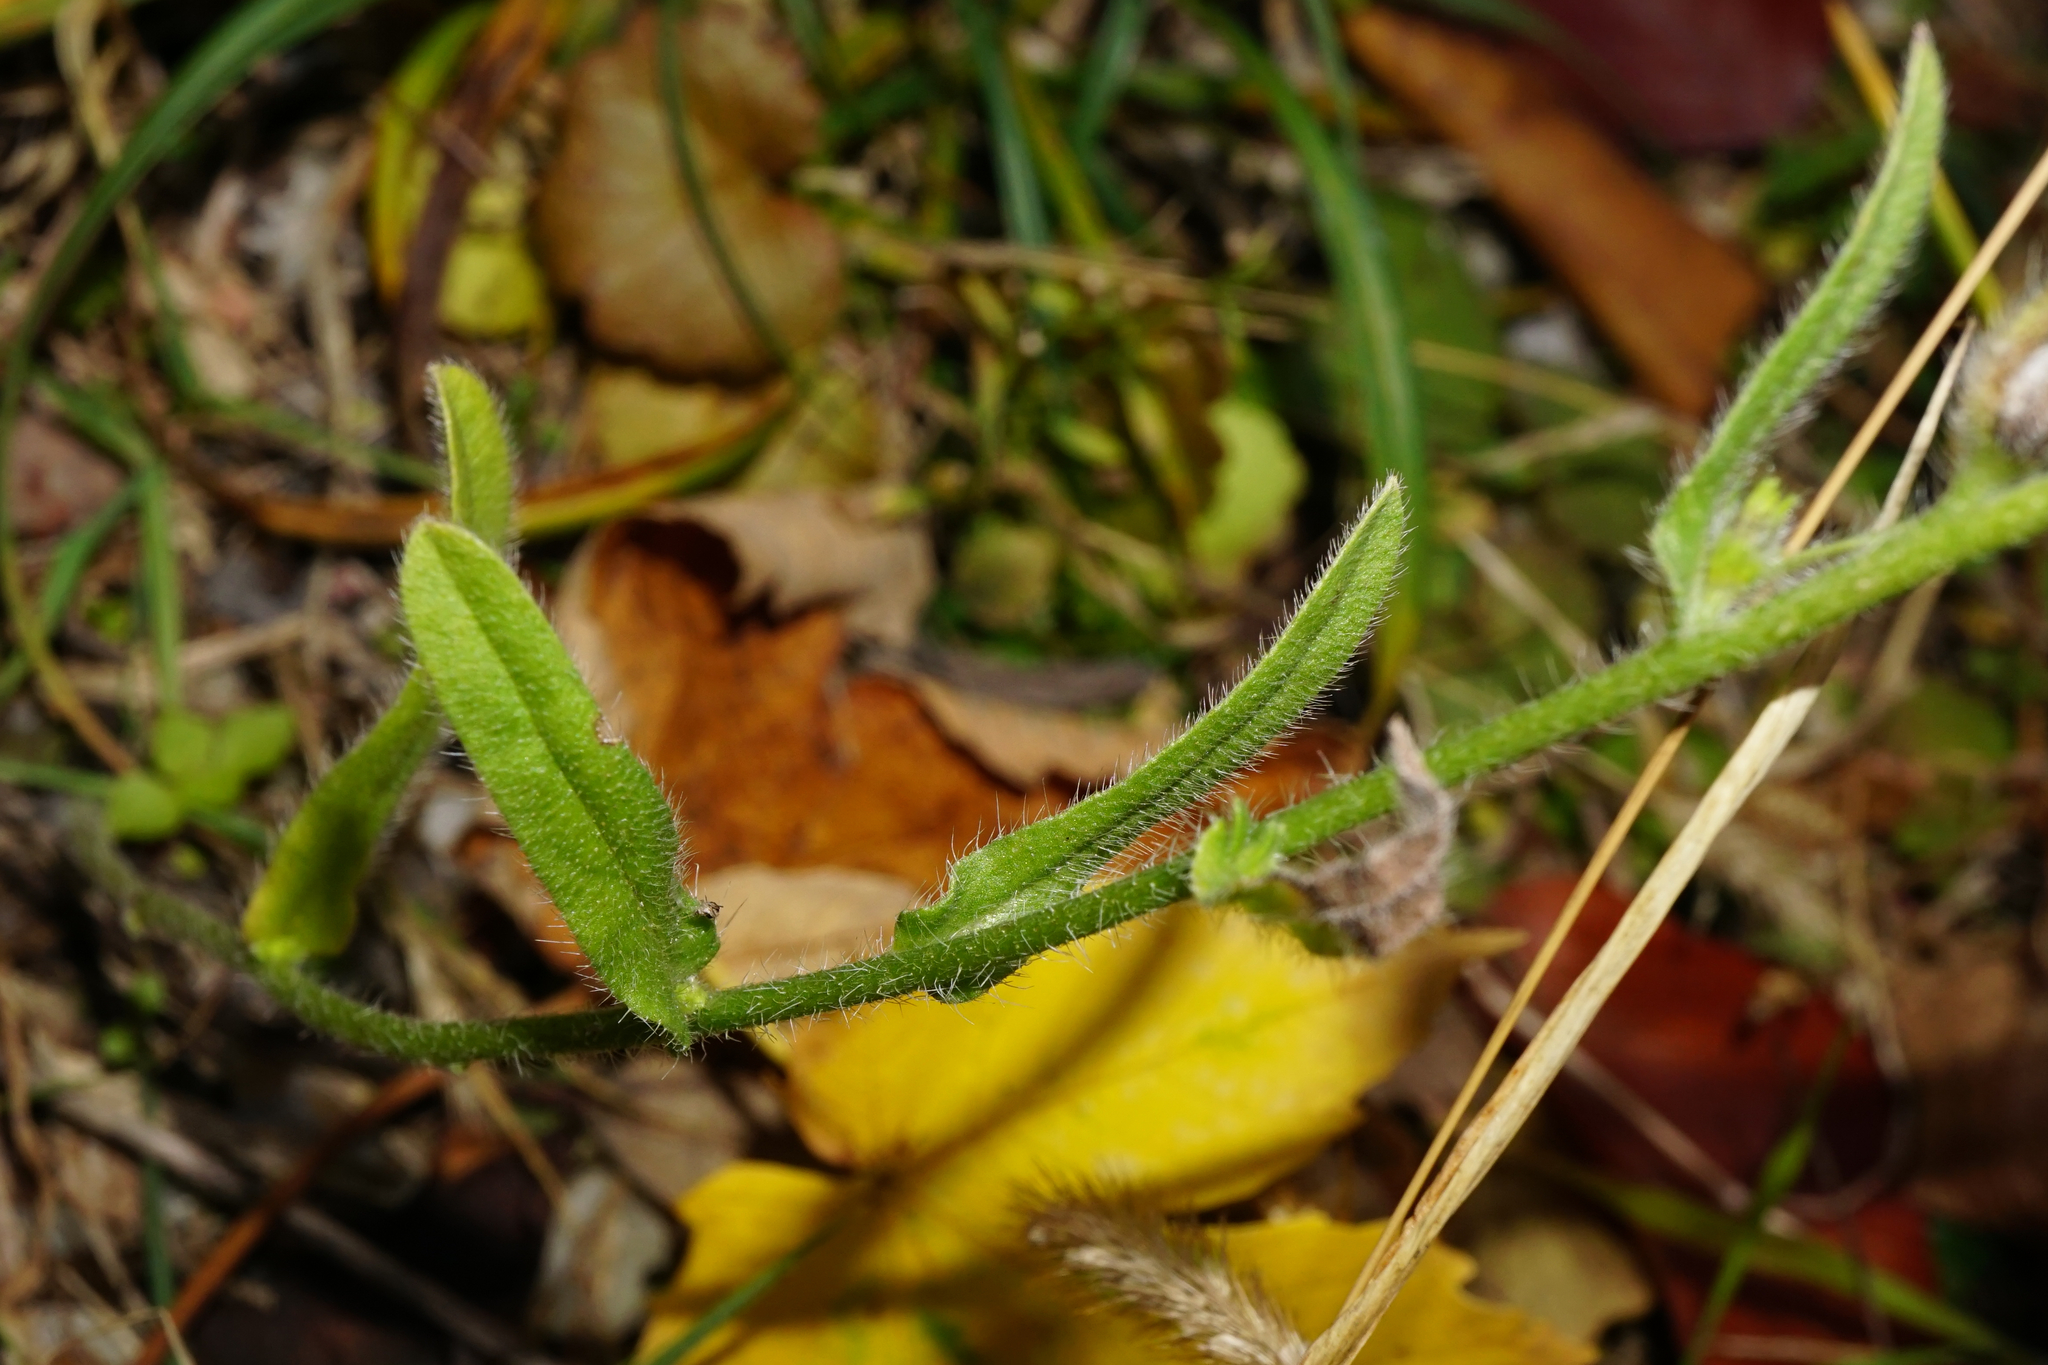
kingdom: Plantae
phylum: Tracheophyta
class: Magnoliopsida
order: Boraginales
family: Boraginaceae
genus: Echium
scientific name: Echium plantagineum
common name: Purple viper's-bugloss
